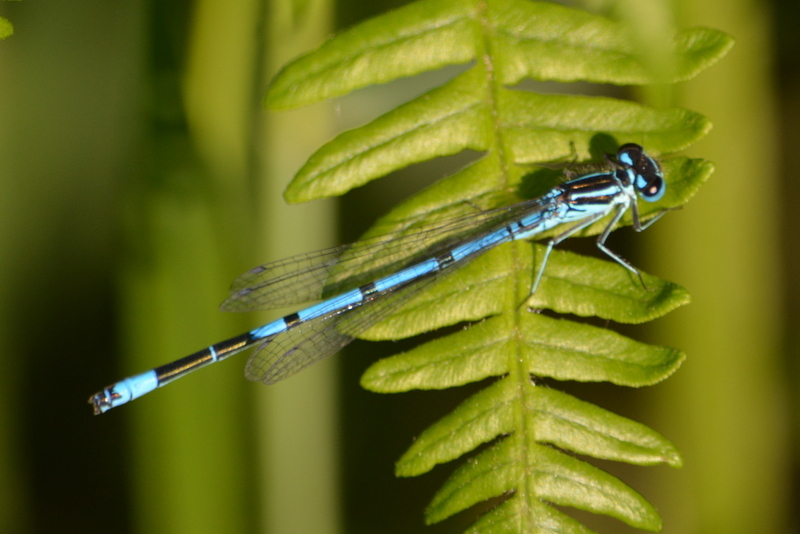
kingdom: Animalia
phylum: Arthropoda
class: Insecta
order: Odonata
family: Coenagrionidae
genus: Coenagrion
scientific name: Coenagrion puella
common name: Azure damselfly
